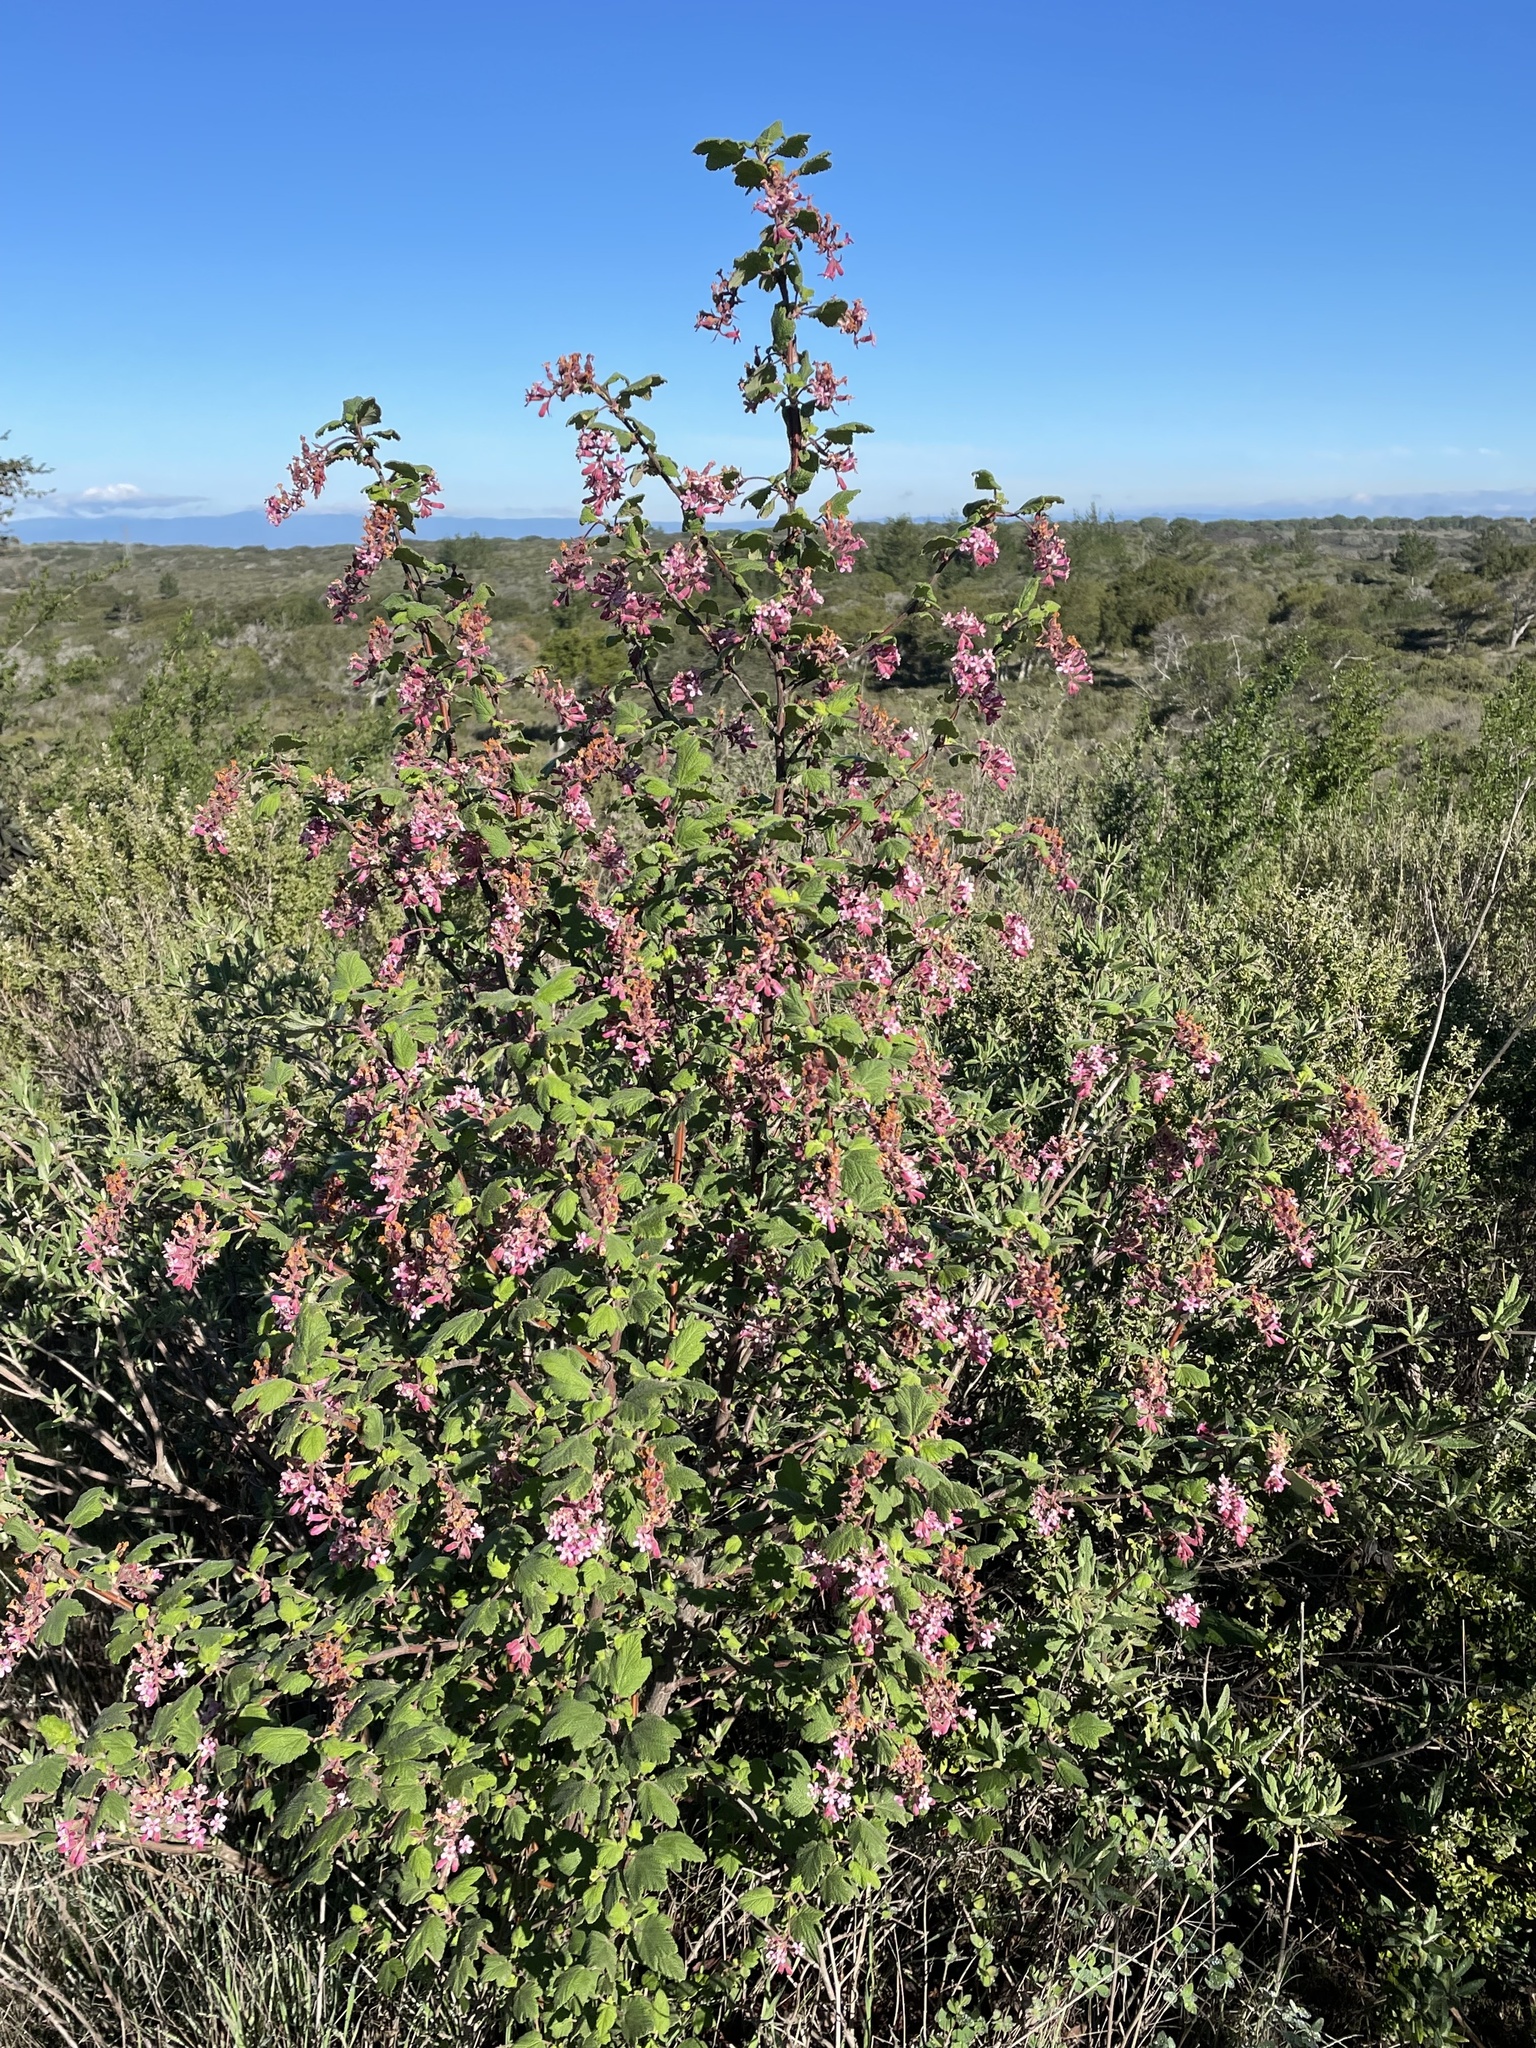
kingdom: Plantae
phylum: Tracheophyta
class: Magnoliopsida
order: Saxifragales
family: Grossulariaceae
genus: Ribes
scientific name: Ribes malvaceum
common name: Chaparral currant
